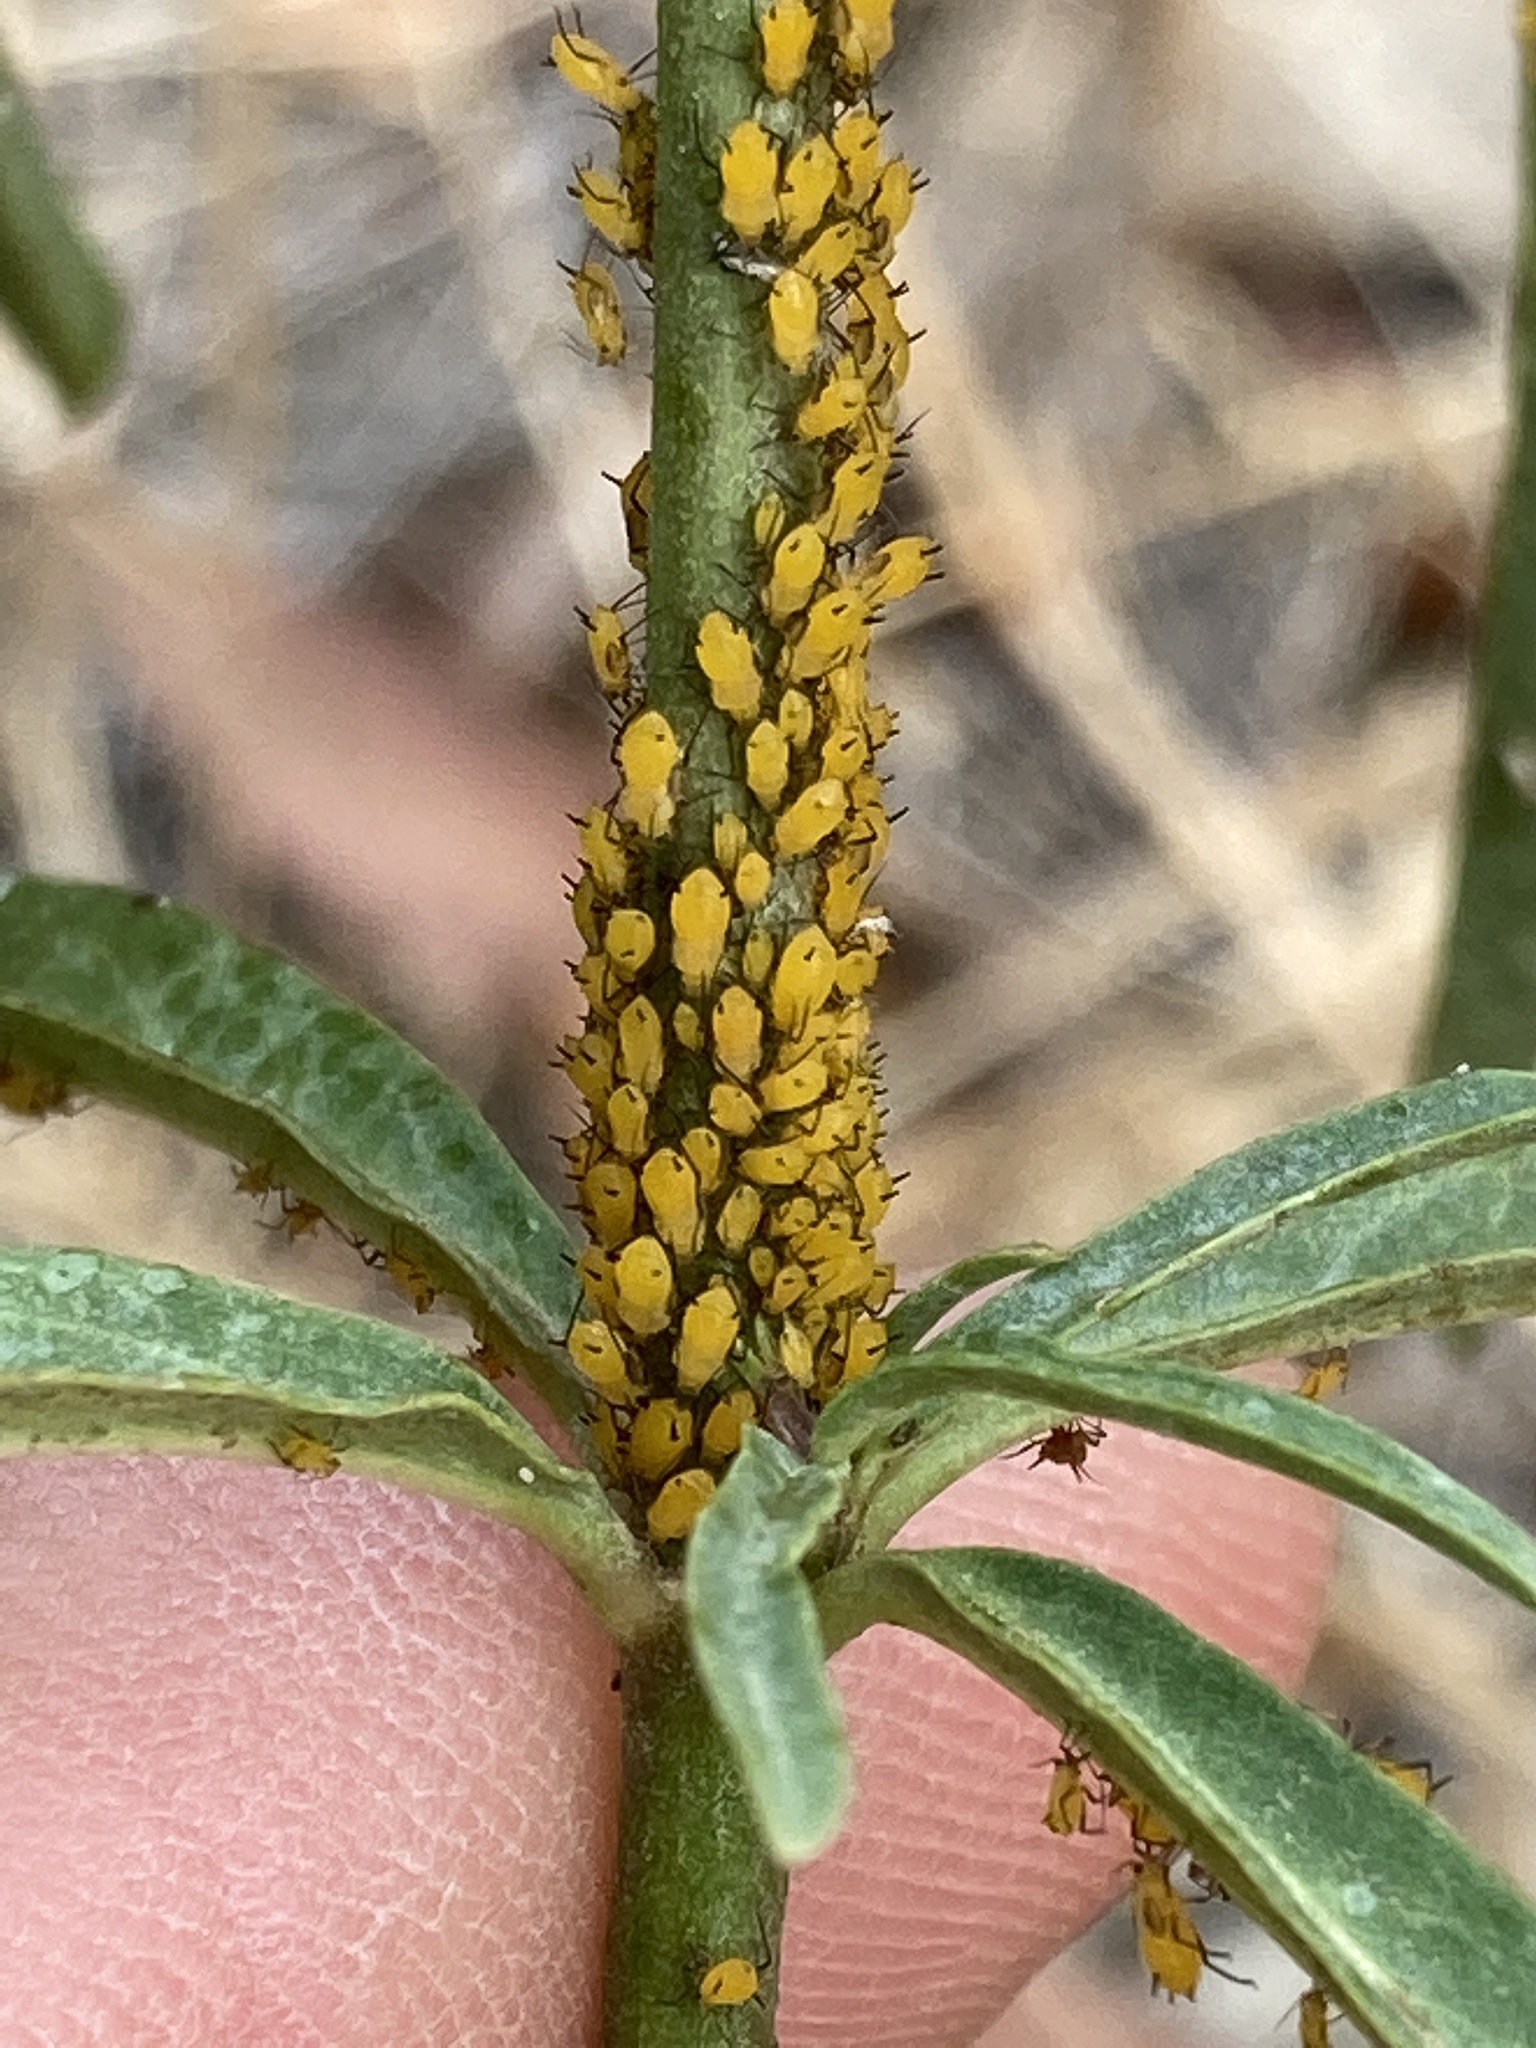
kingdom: Animalia
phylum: Arthropoda
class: Insecta
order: Hemiptera
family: Aphididae
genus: Aphis
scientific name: Aphis nerii
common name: Oleander aphid
